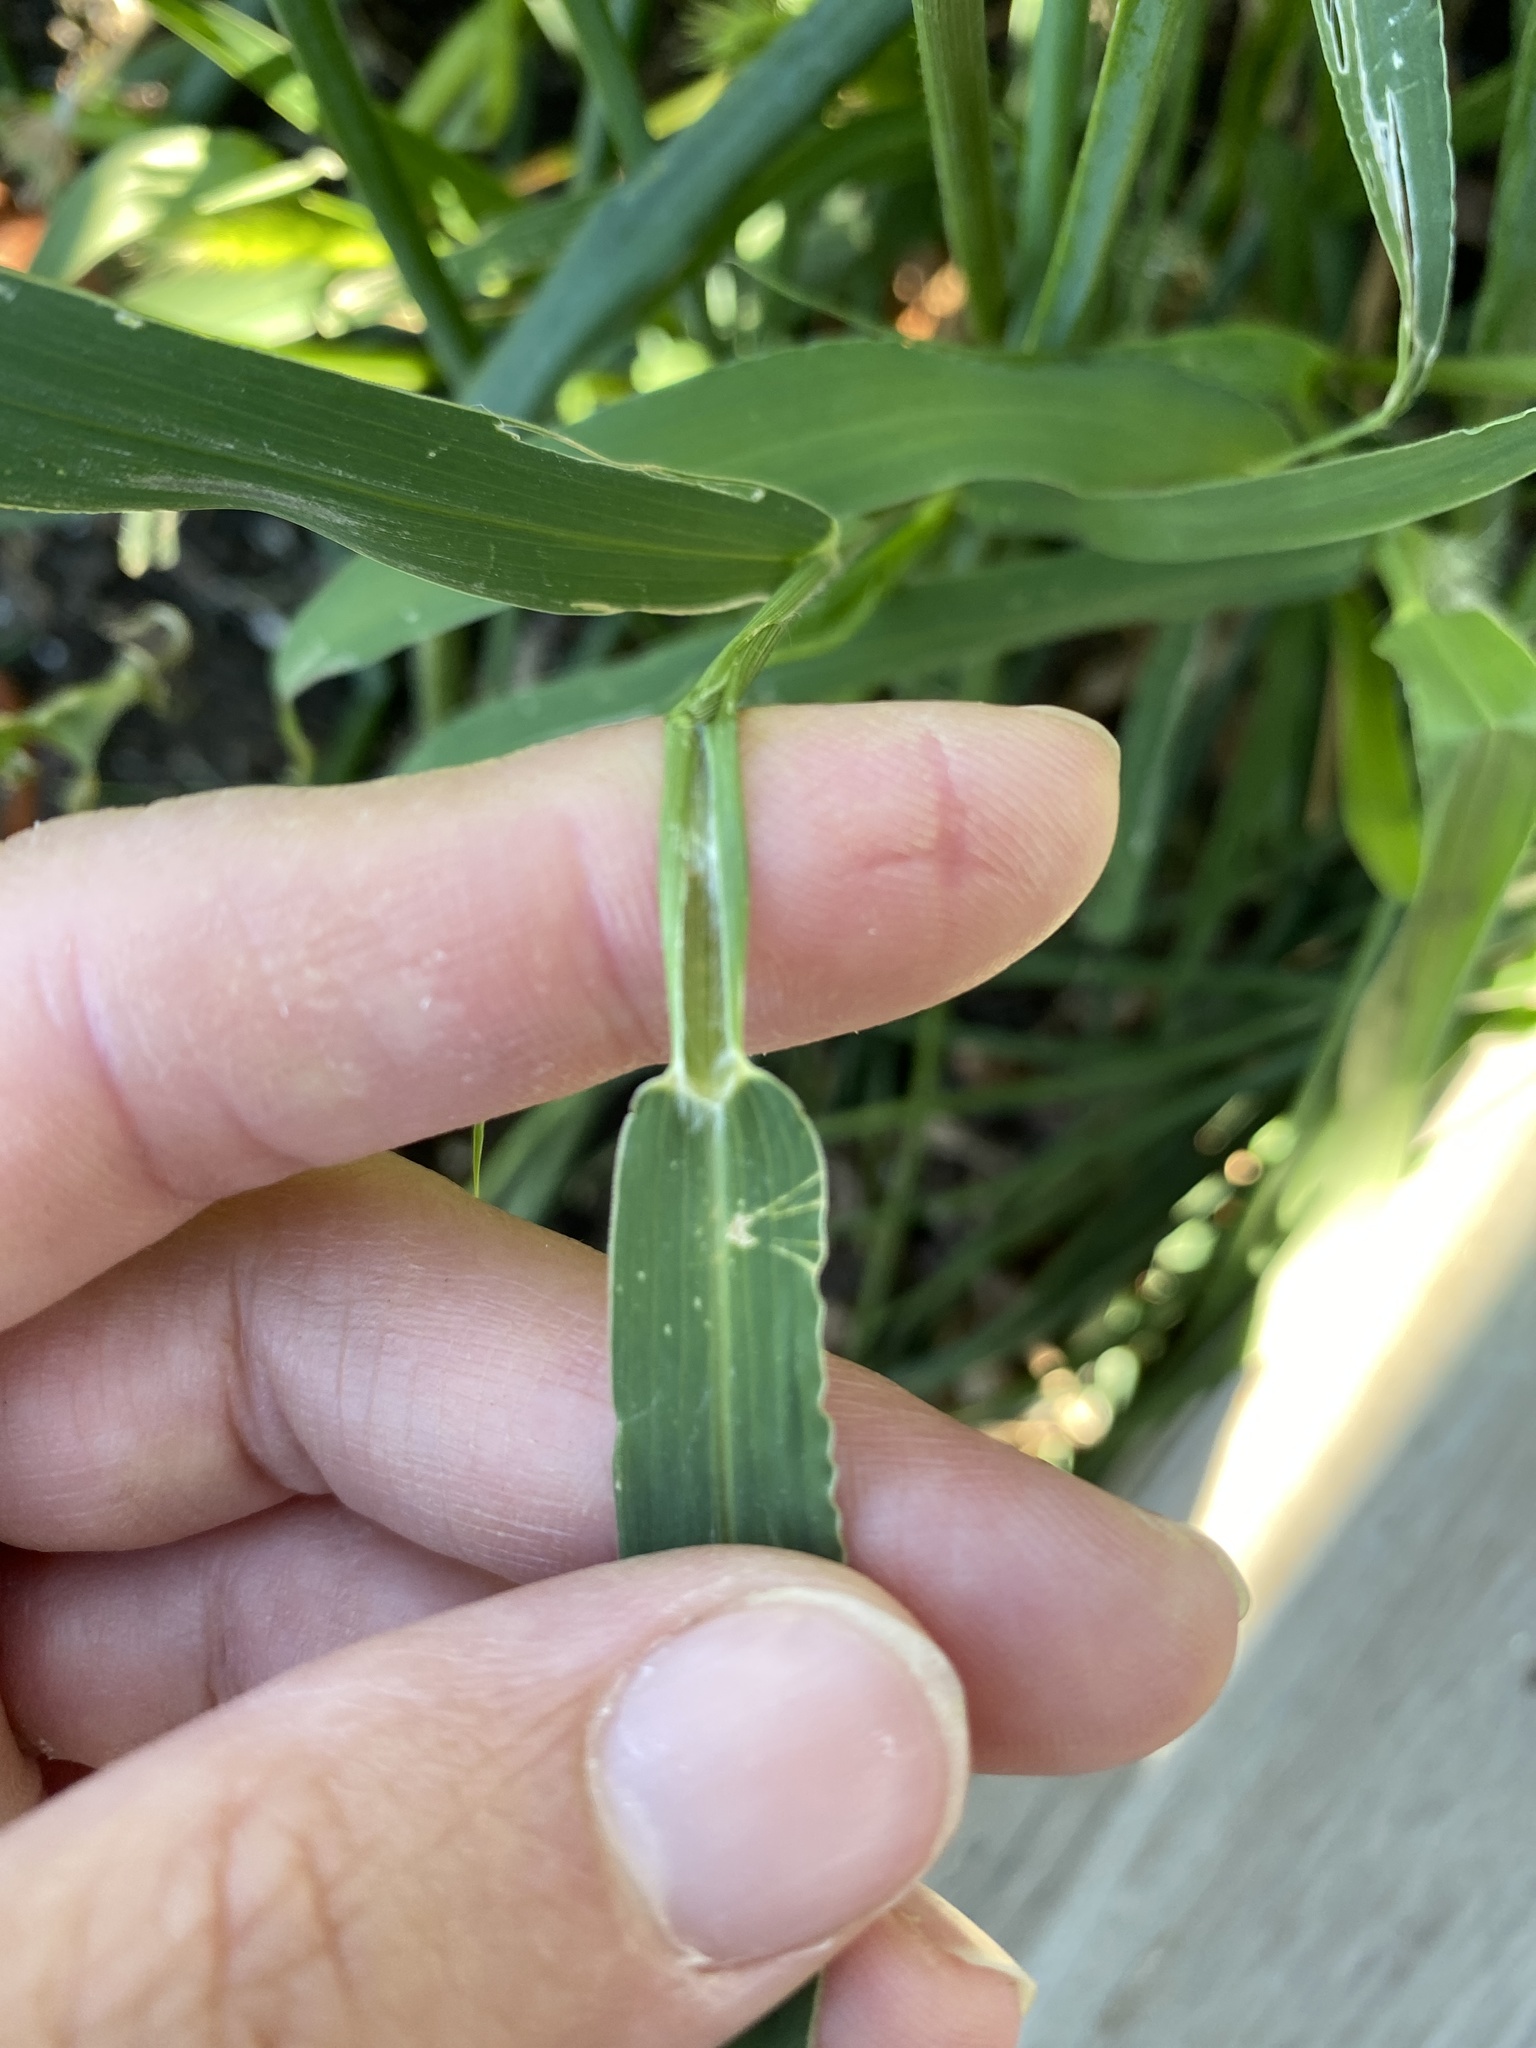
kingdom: Plantae
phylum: Tracheophyta
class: Liliopsida
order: Poales
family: Poaceae
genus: Setaria
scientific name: Setaria viridis
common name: Green bristlegrass
